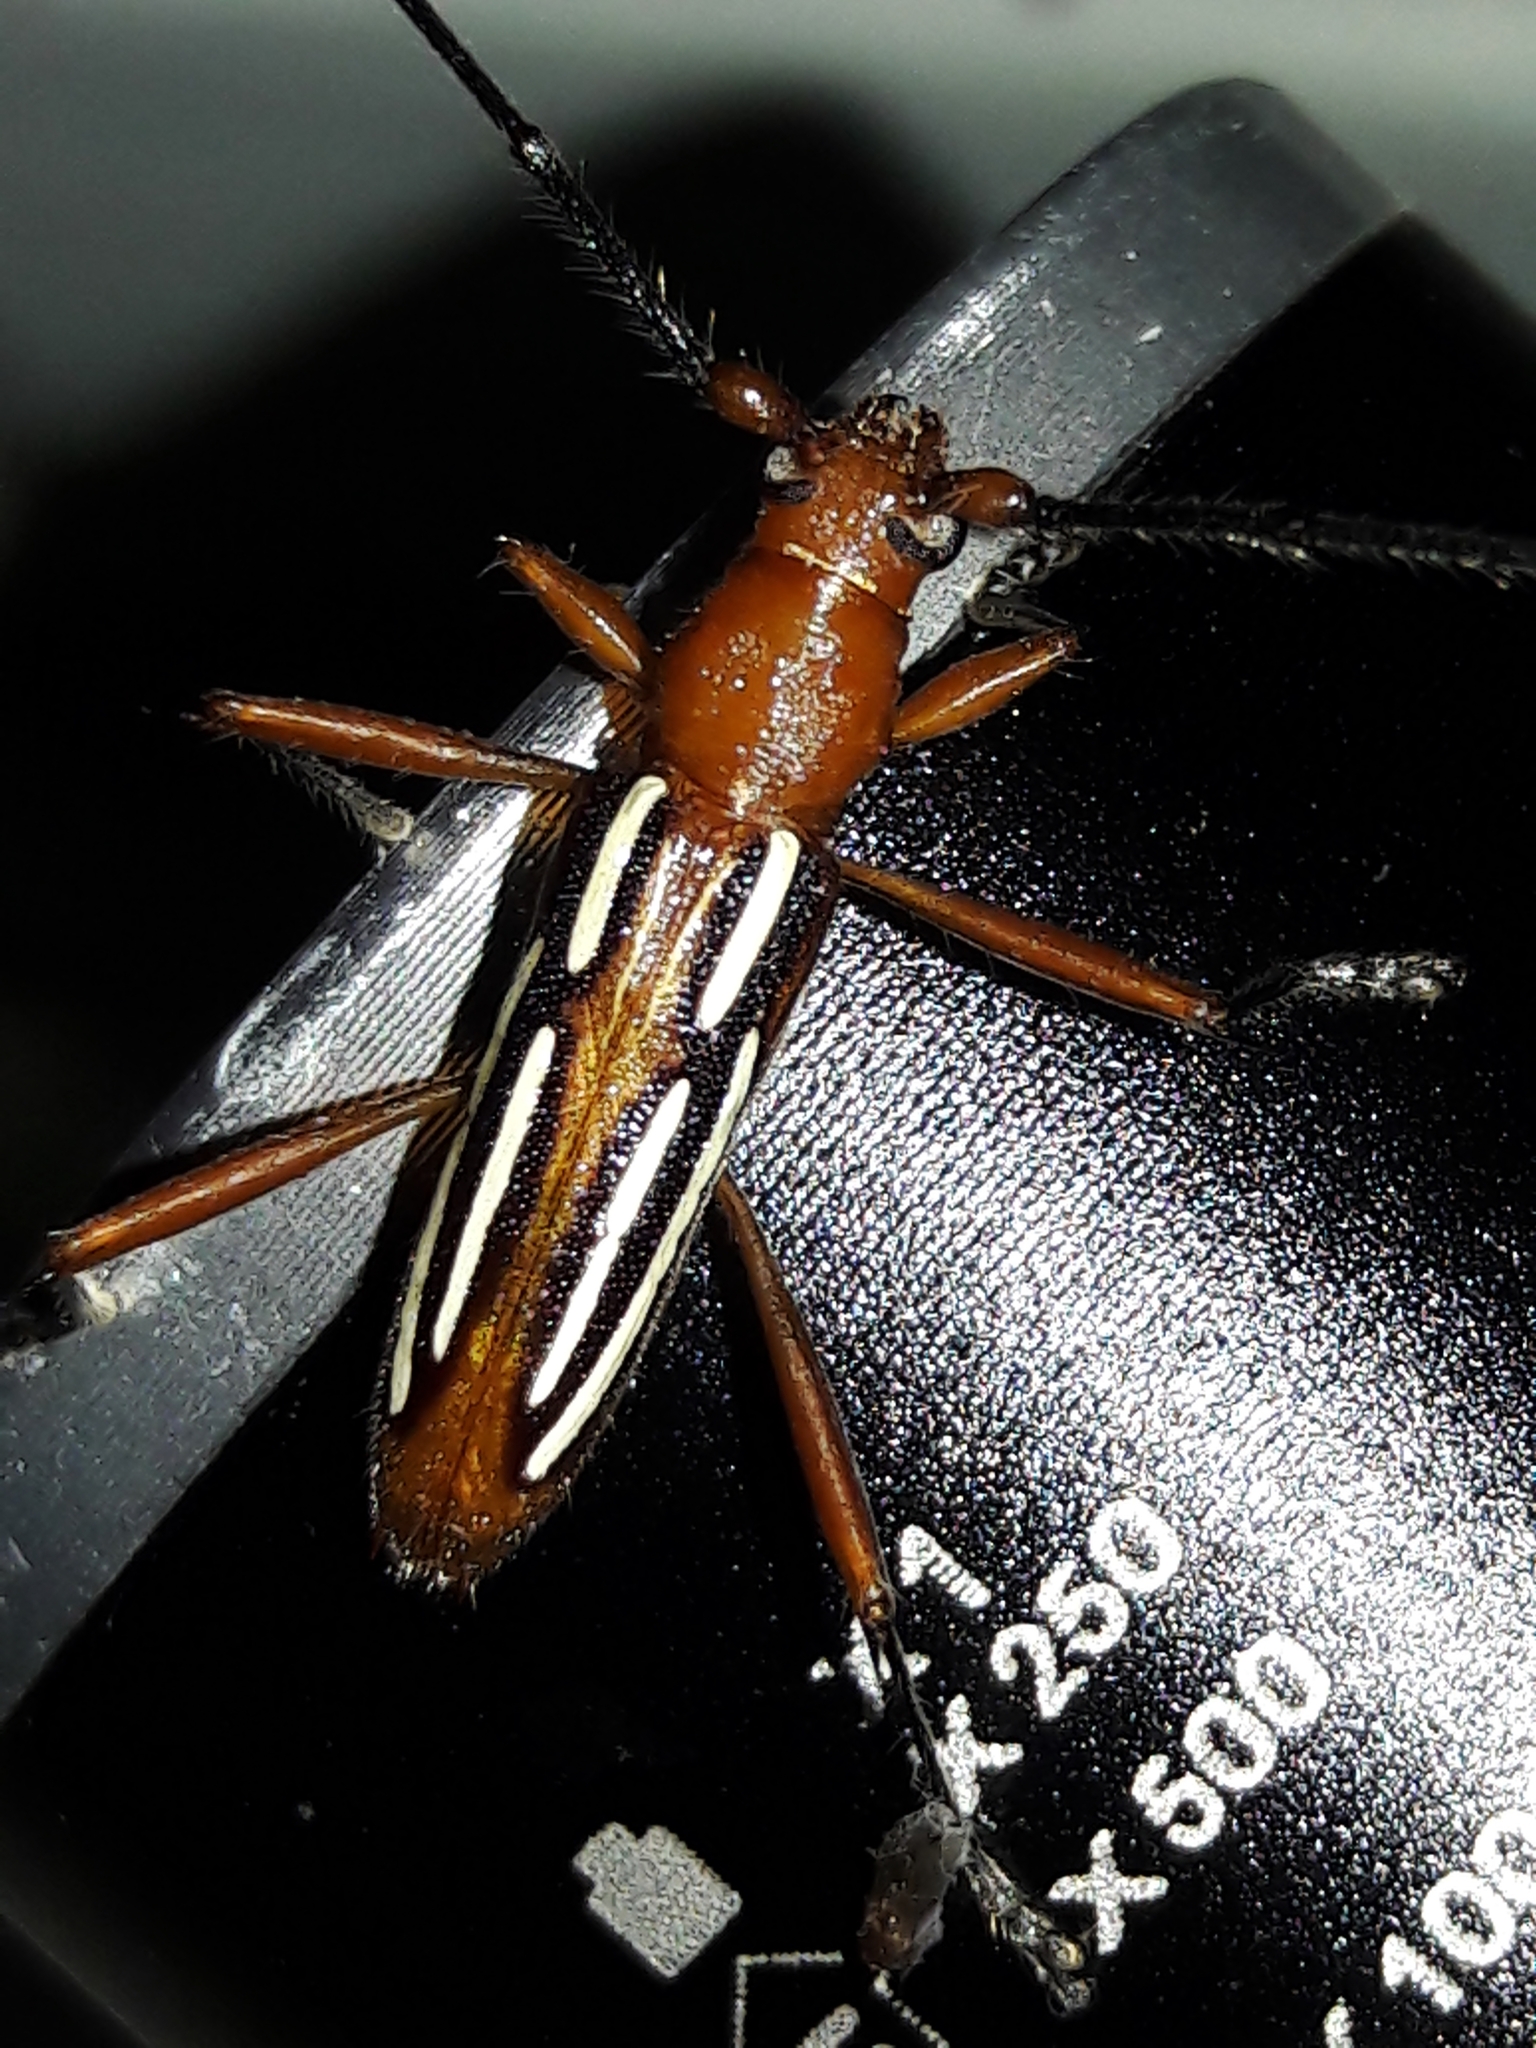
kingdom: Animalia
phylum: Arthropoda
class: Insecta
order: Coleoptera
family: Cerambycidae
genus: Erosida
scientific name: Erosida lineola
